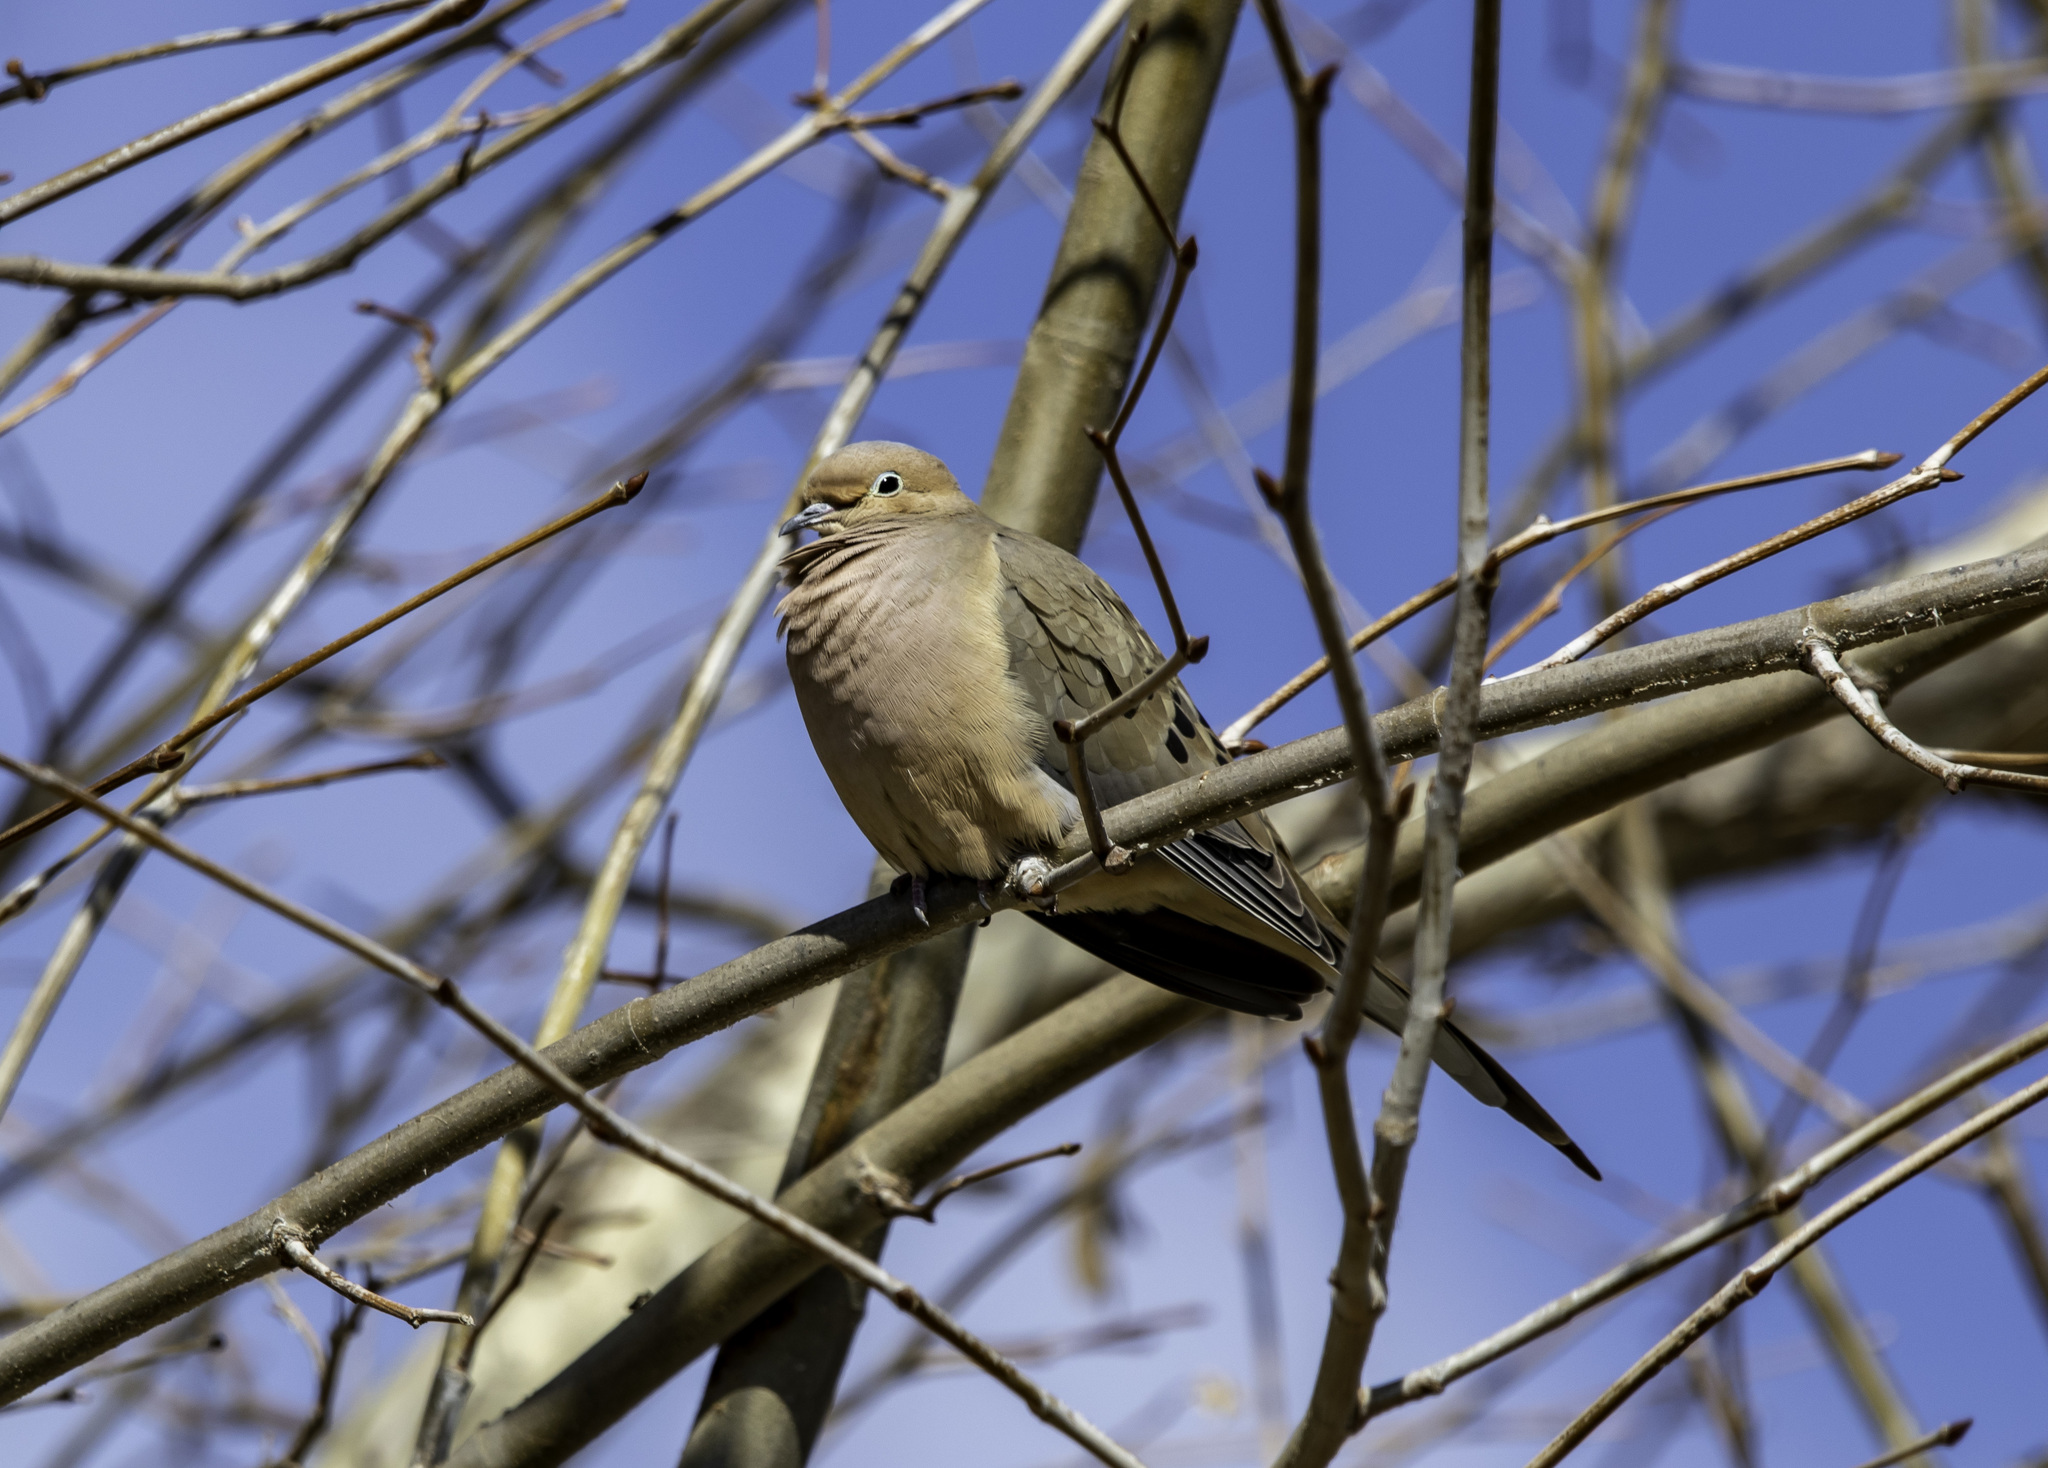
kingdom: Animalia
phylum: Chordata
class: Aves
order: Columbiformes
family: Columbidae
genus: Zenaida
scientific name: Zenaida macroura
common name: Mourning dove
